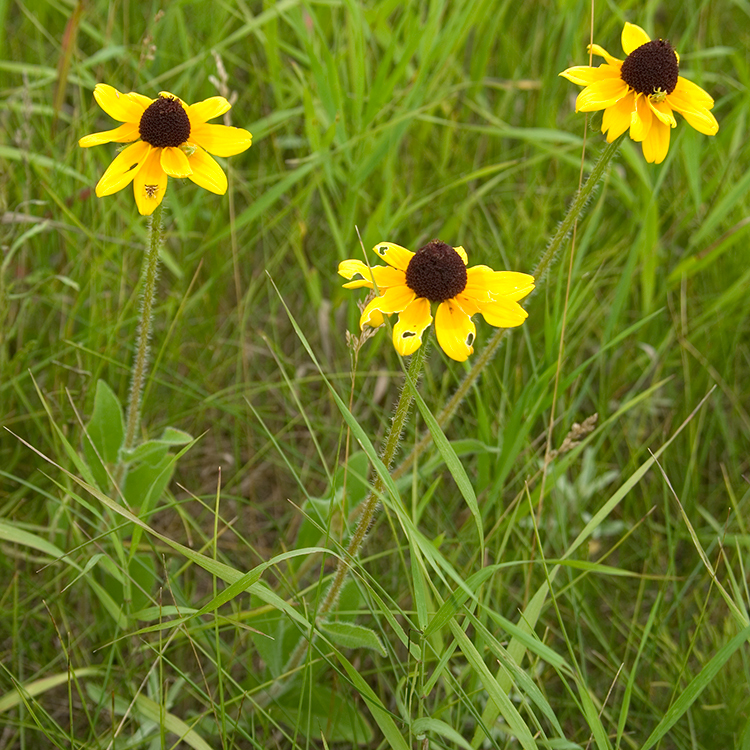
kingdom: Plantae
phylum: Tracheophyta
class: Magnoliopsida
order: Asterales
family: Asteraceae
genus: Rudbeckia
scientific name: Rudbeckia hirta
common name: Black-eyed-susan
